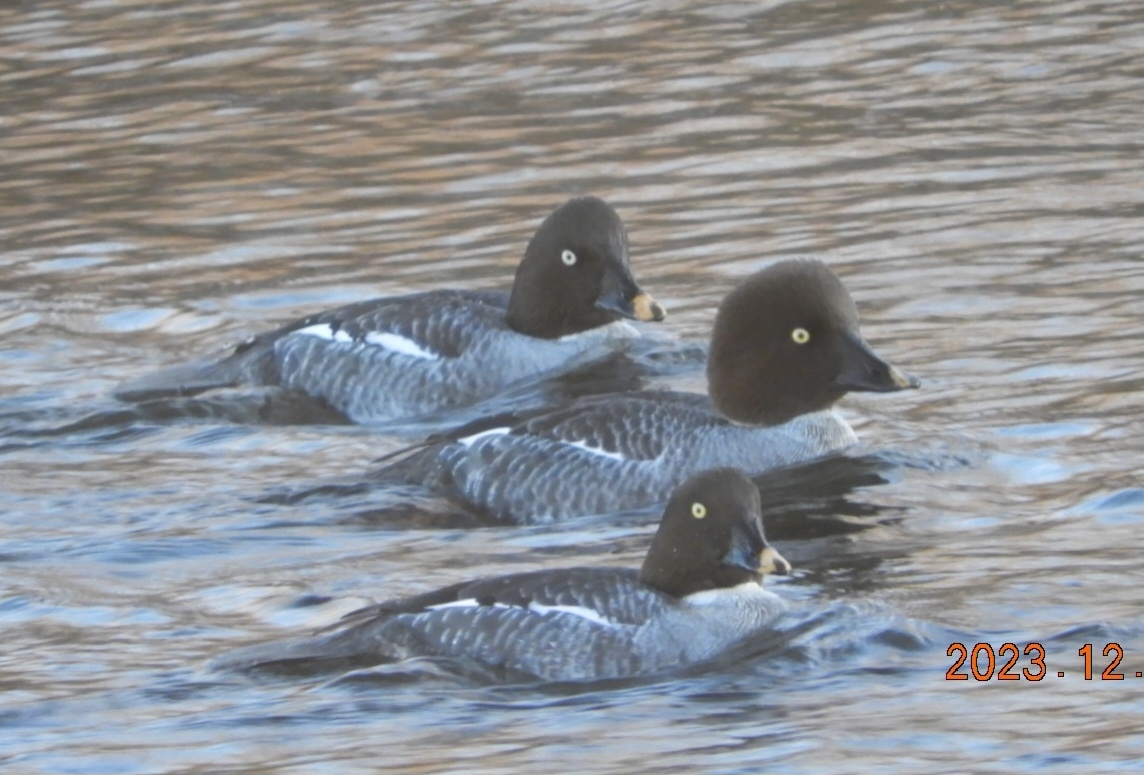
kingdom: Animalia
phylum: Chordata
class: Aves
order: Anseriformes
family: Anatidae
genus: Bucephala
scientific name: Bucephala clangula
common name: Common goldeneye
